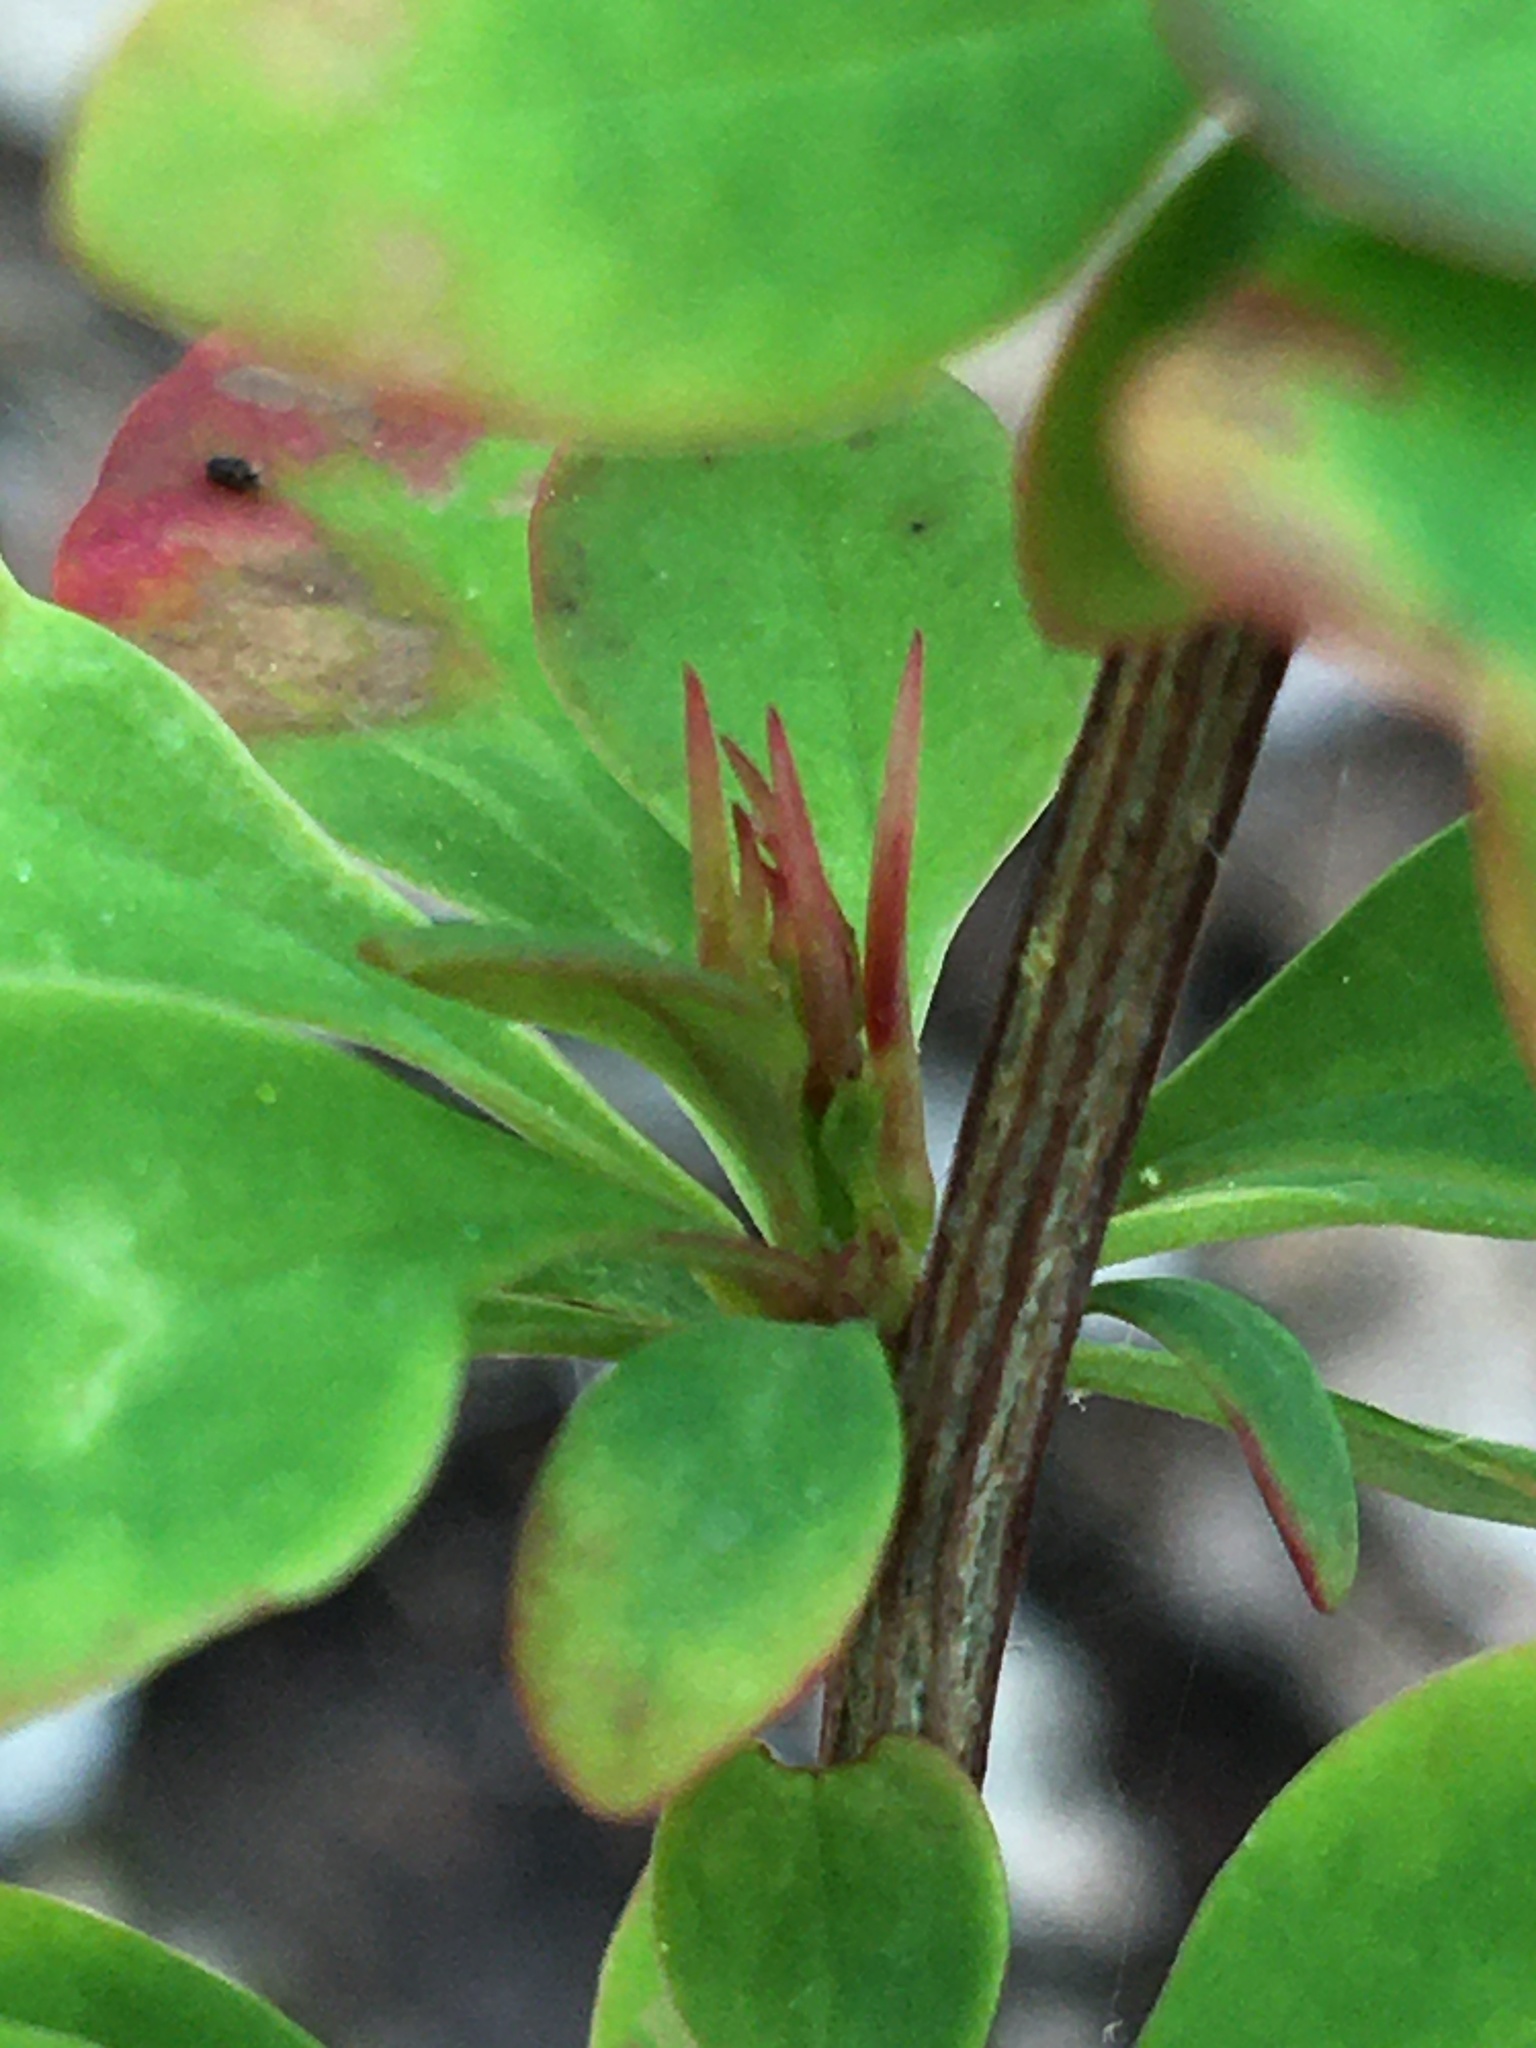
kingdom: Plantae
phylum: Tracheophyta
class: Magnoliopsida
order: Ranunculales
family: Berberidaceae
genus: Berberis
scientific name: Berberis thunbergii
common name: Japanese barberry
